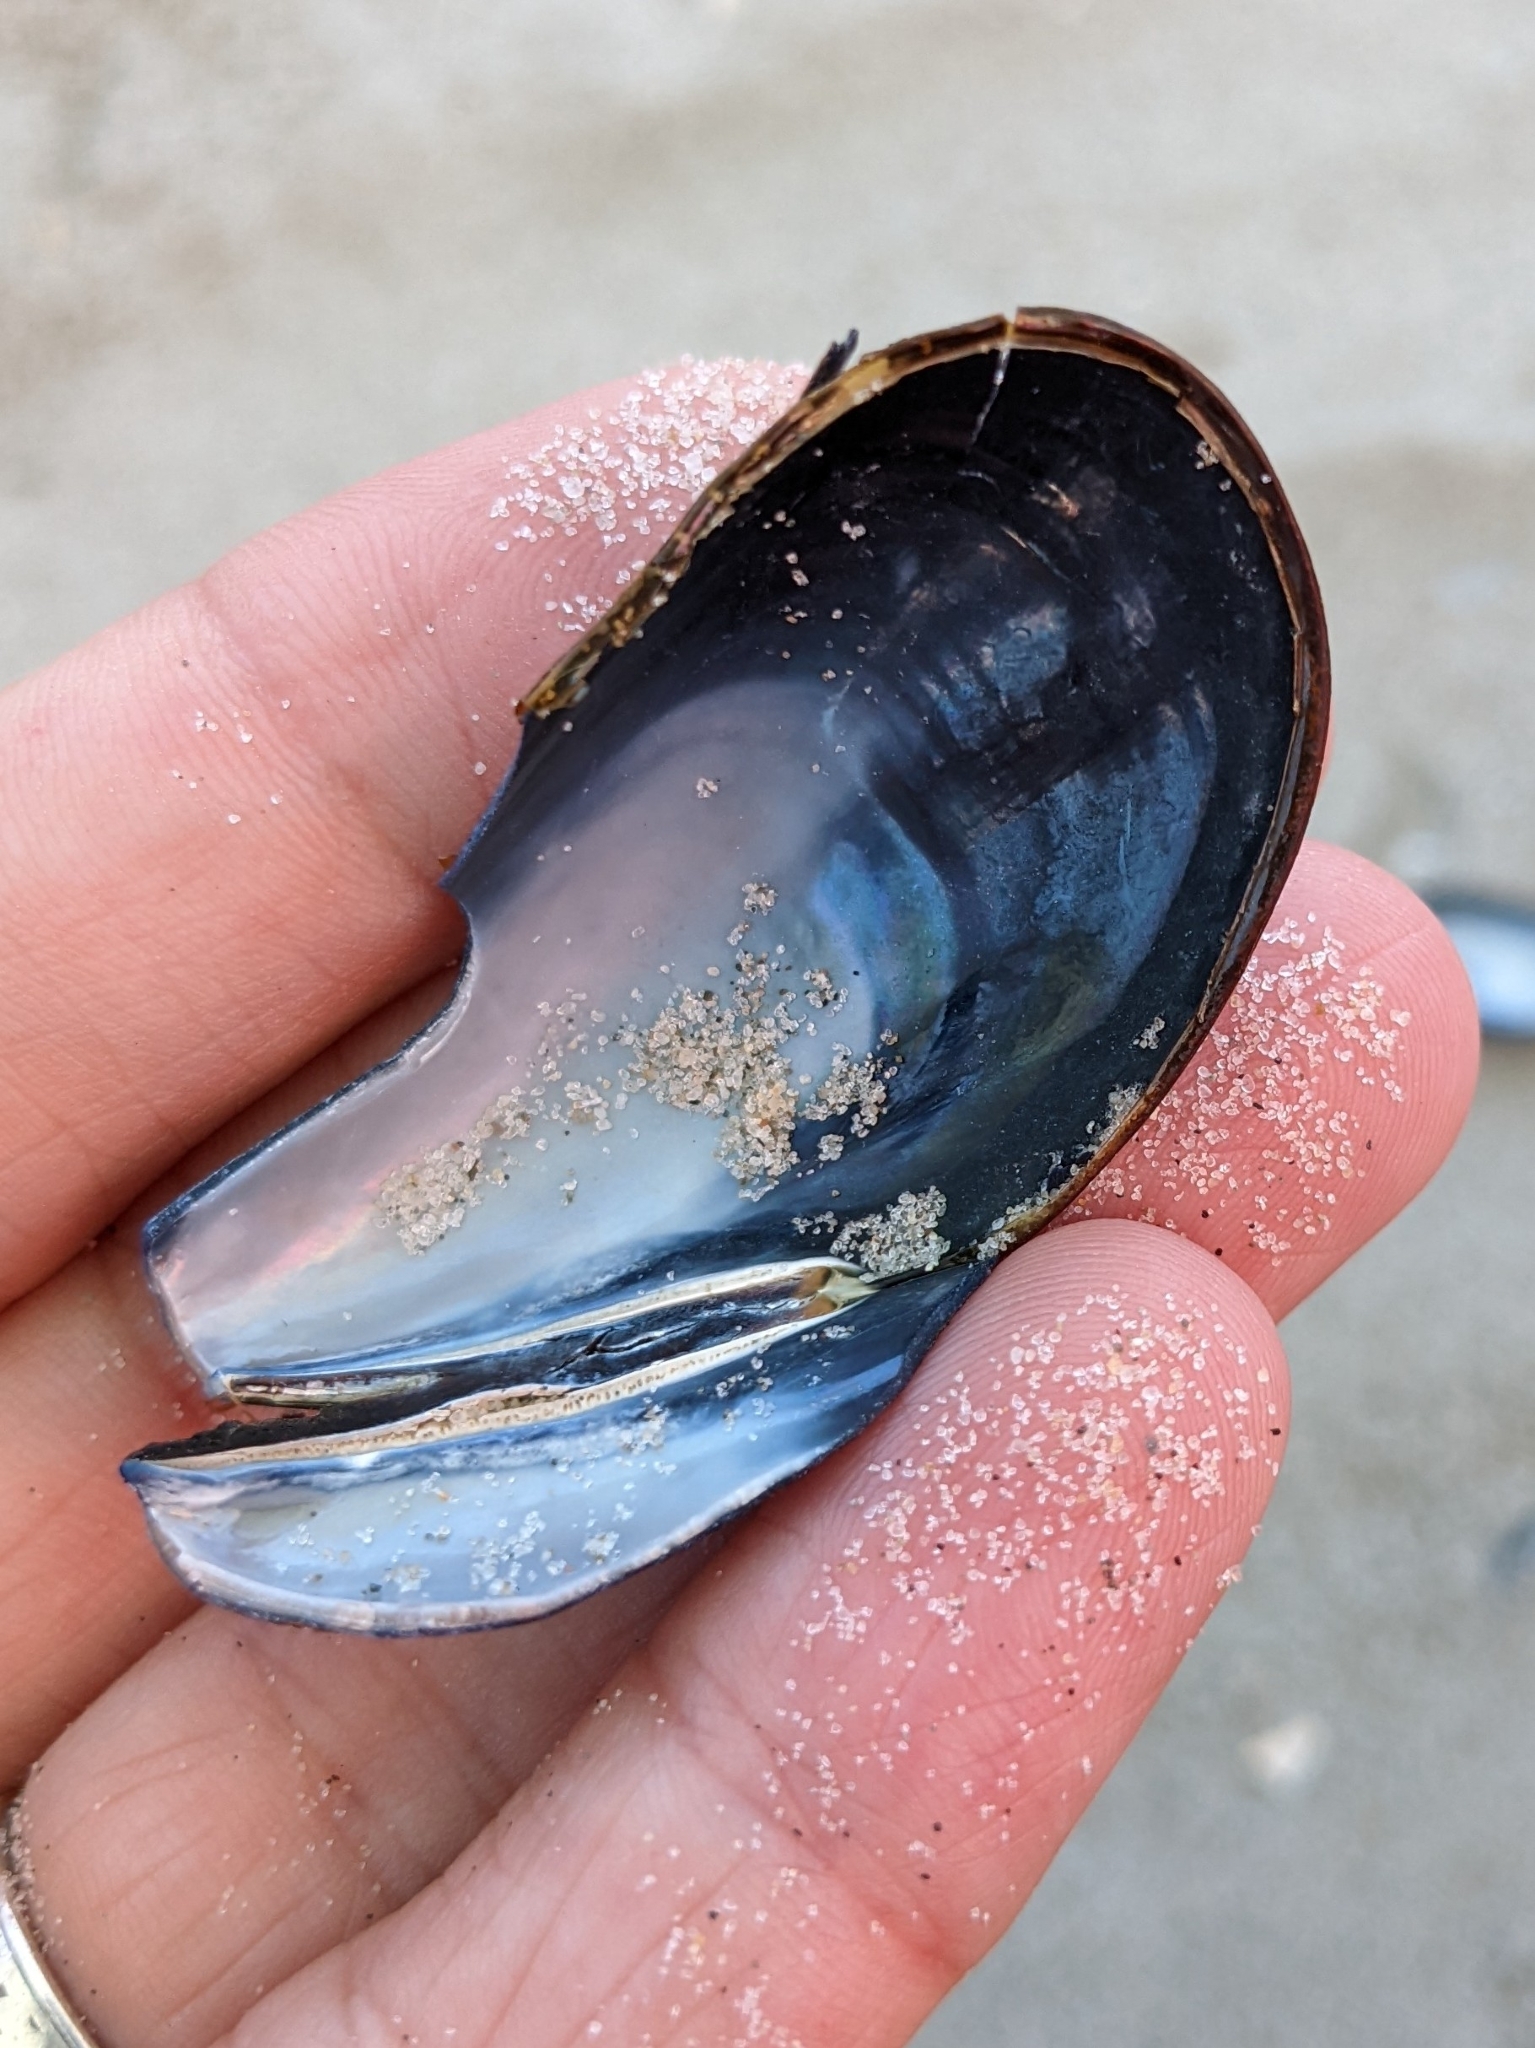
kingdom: Animalia
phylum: Mollusca
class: Bivalvia
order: Mytilida
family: Mytilidae
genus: Mytilus
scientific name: Mytilus edulis
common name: Blue mussel
